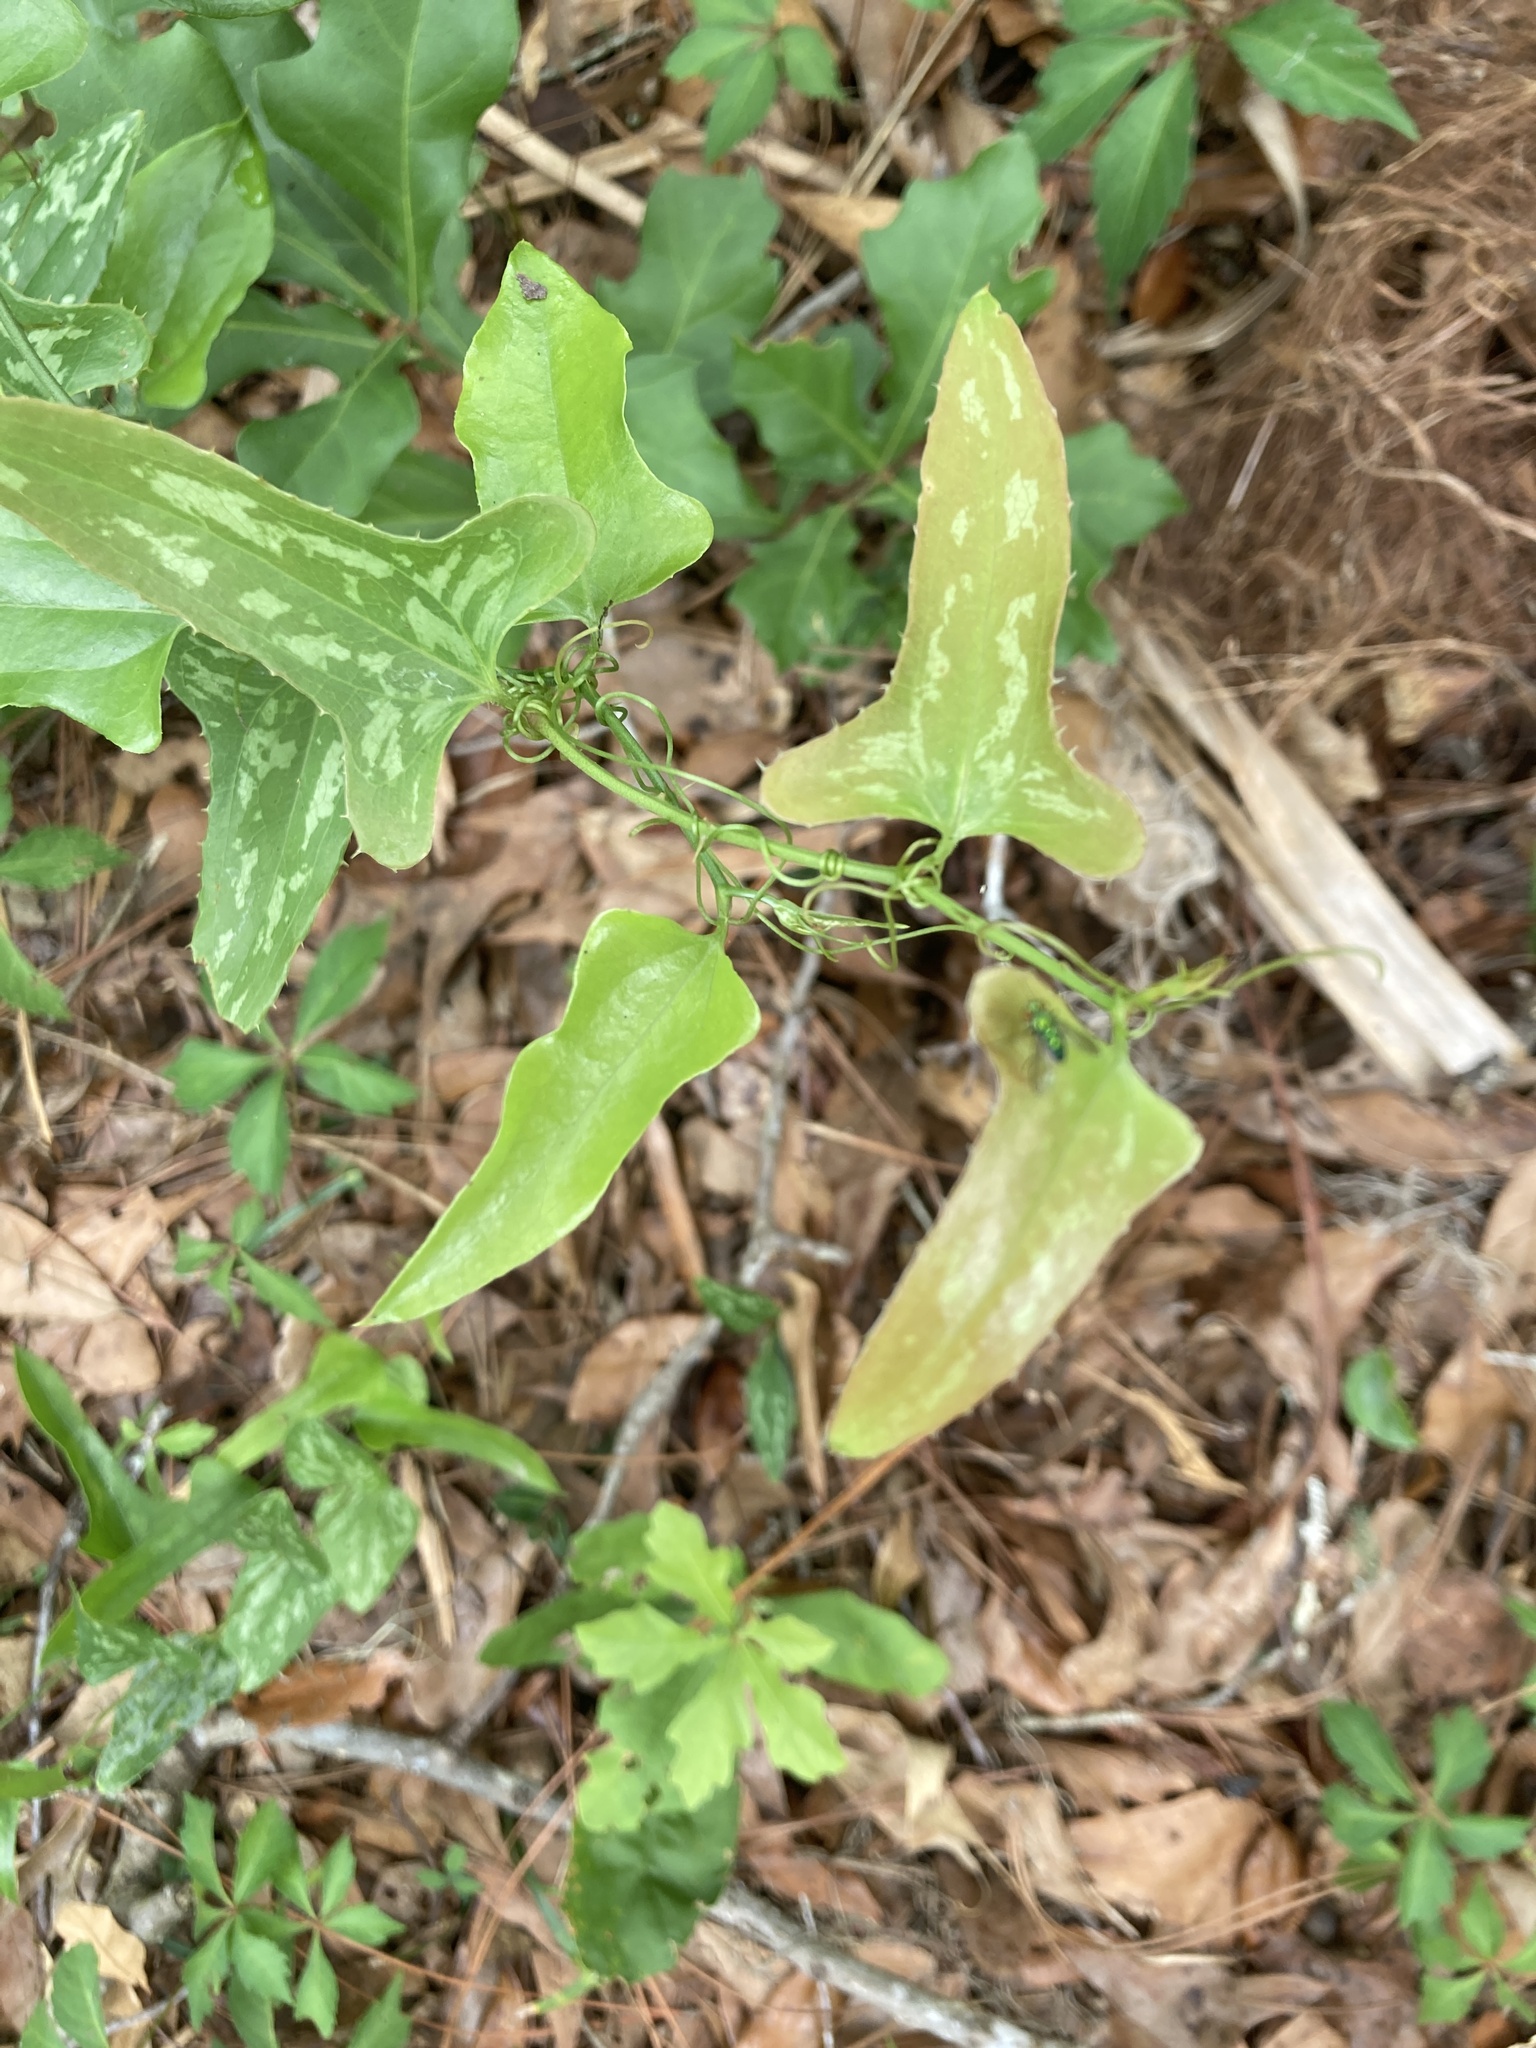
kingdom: Plantae
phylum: Tracheophyta
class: Liliopsida
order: Liliales
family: Smilacaceae
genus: Smilax
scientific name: Smilax bona-nox
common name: Catbrier
